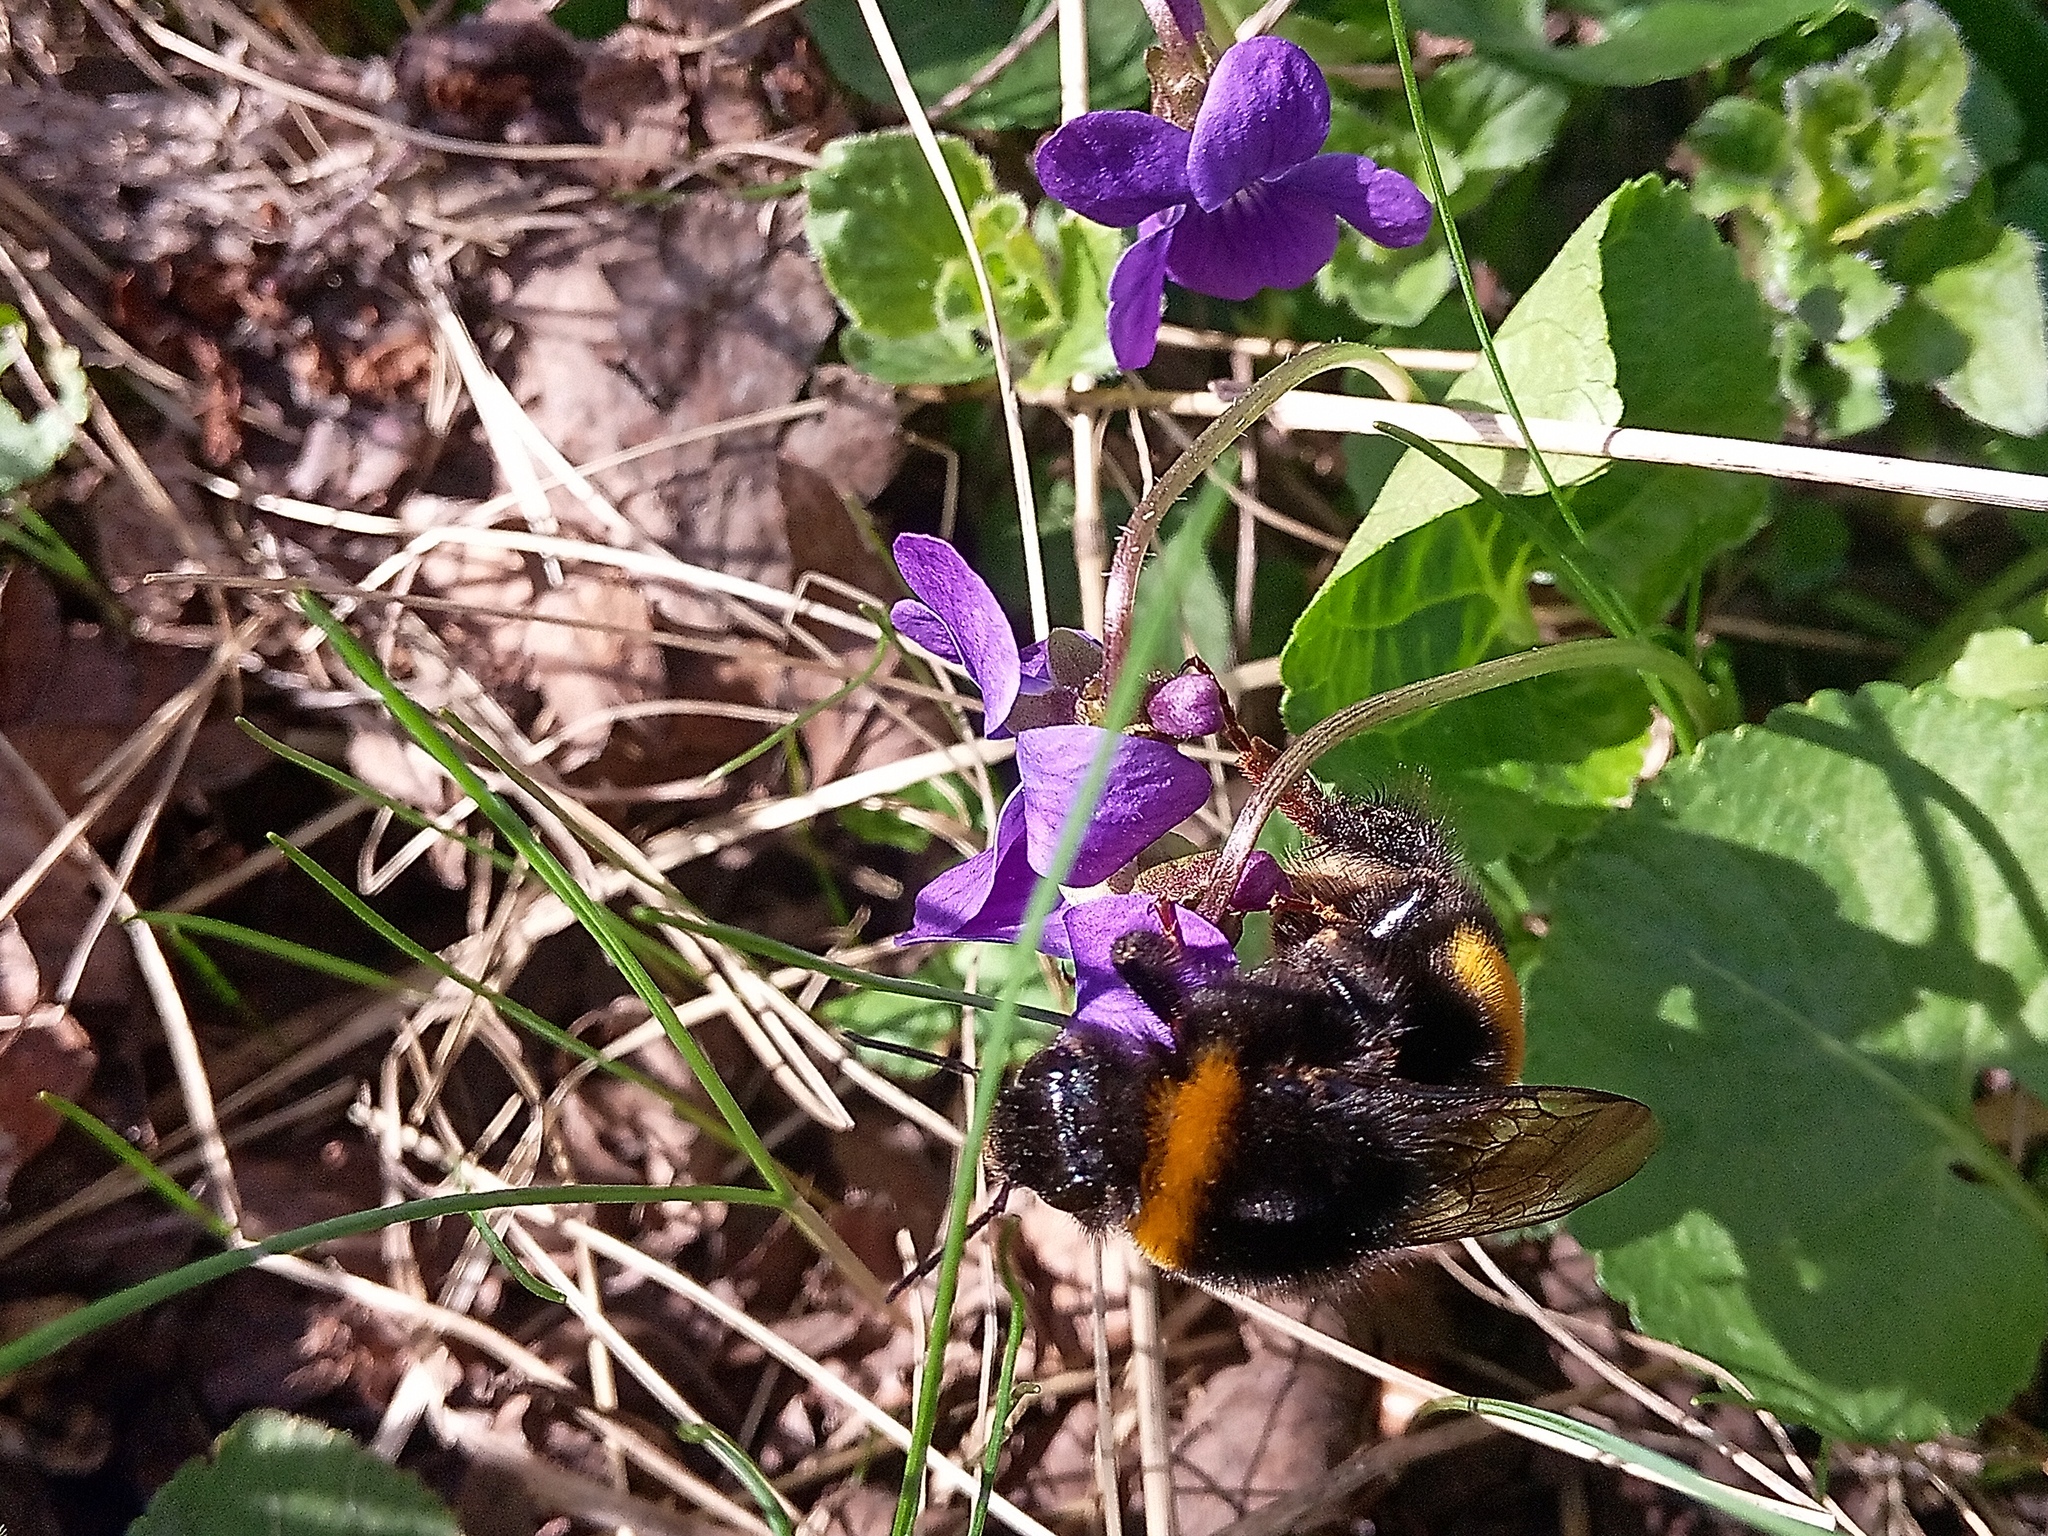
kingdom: Animalia
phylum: Arthropoda
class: Insecta
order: Hymenoptera
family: Apidae
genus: Bombus
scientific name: Bombus
